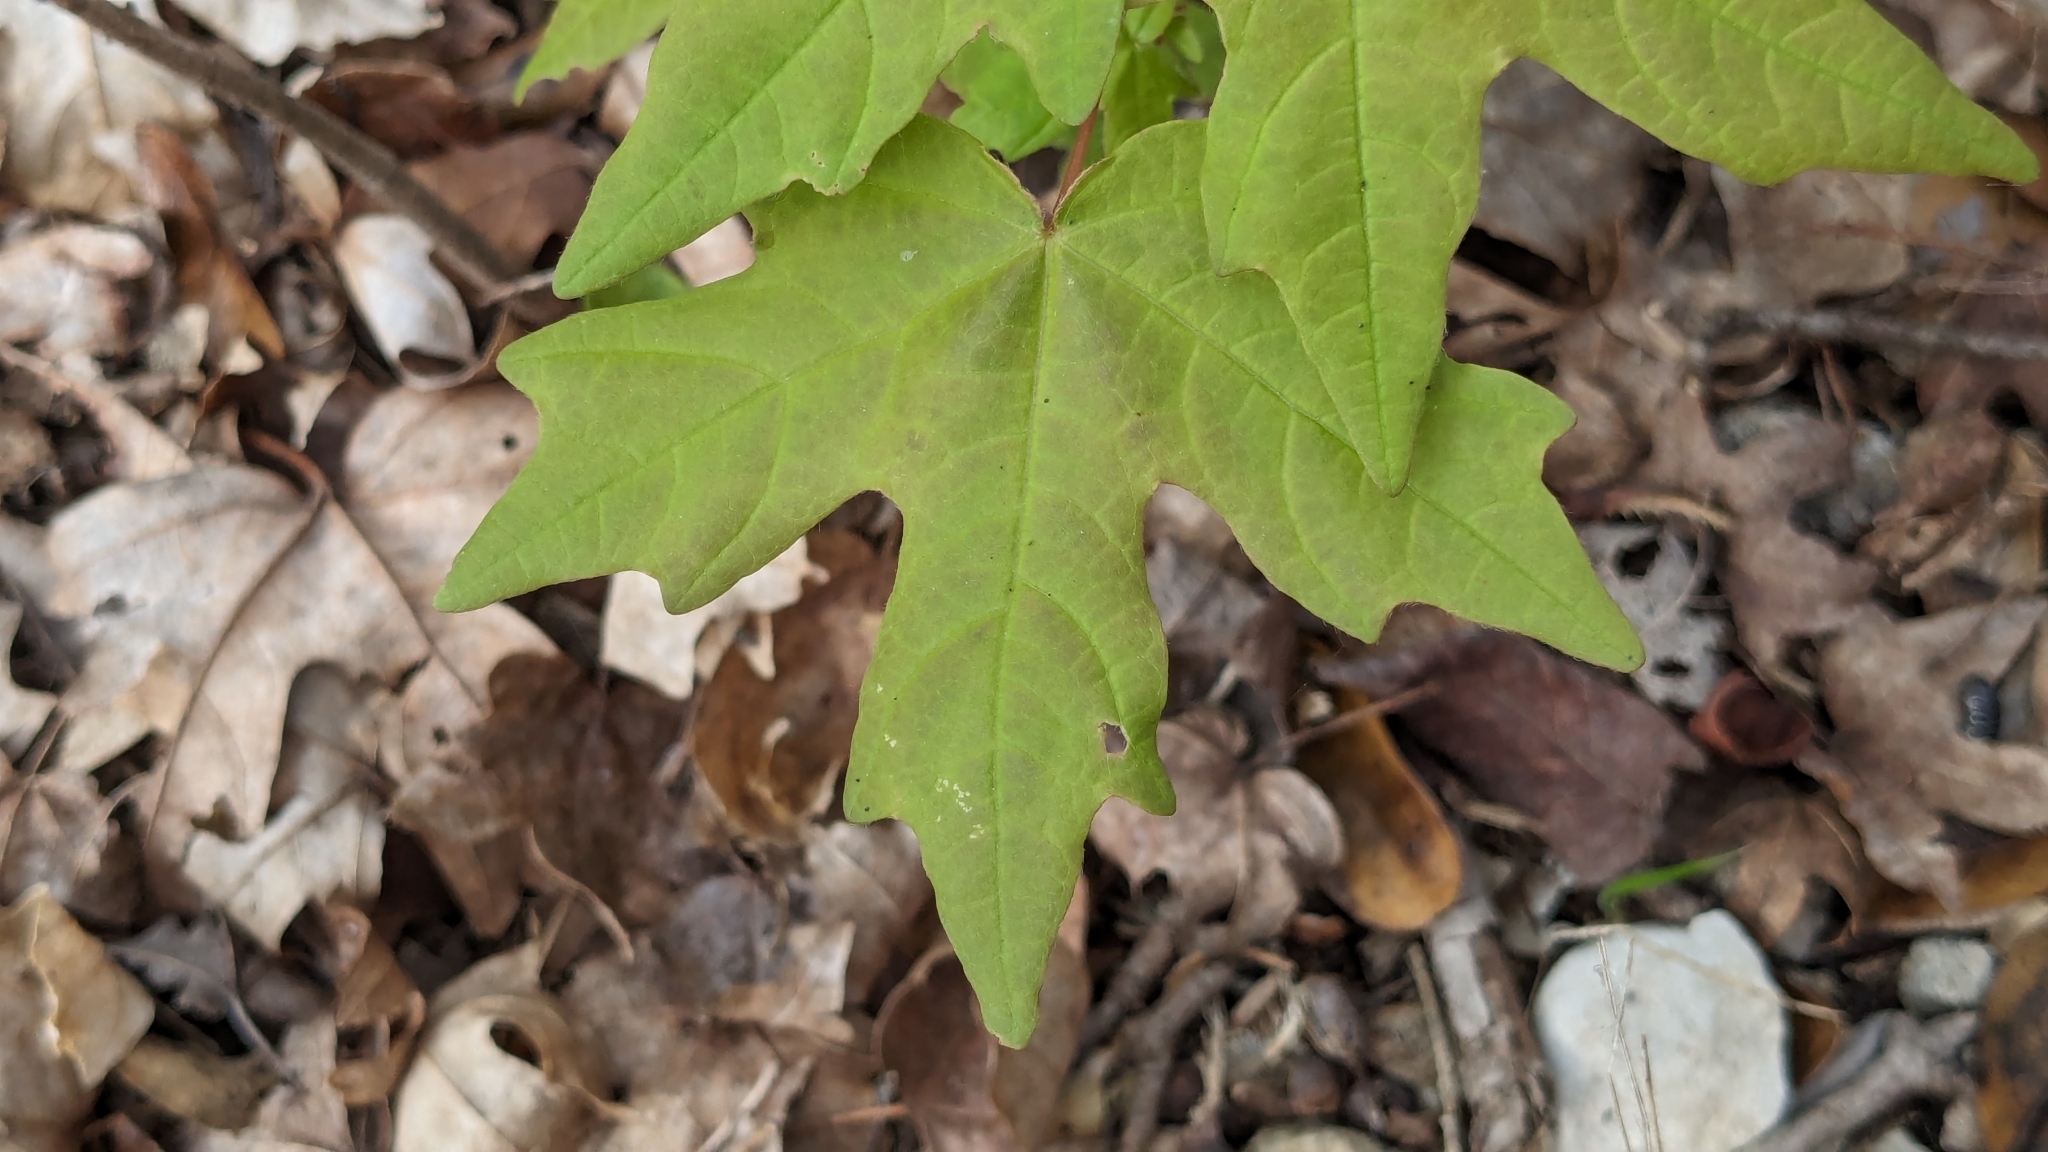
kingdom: Plantae
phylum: Tracheophyta
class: Magnoliopsida
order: Sapindales
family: Sapindaceae
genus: Acer
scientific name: Acer grandidentatum
